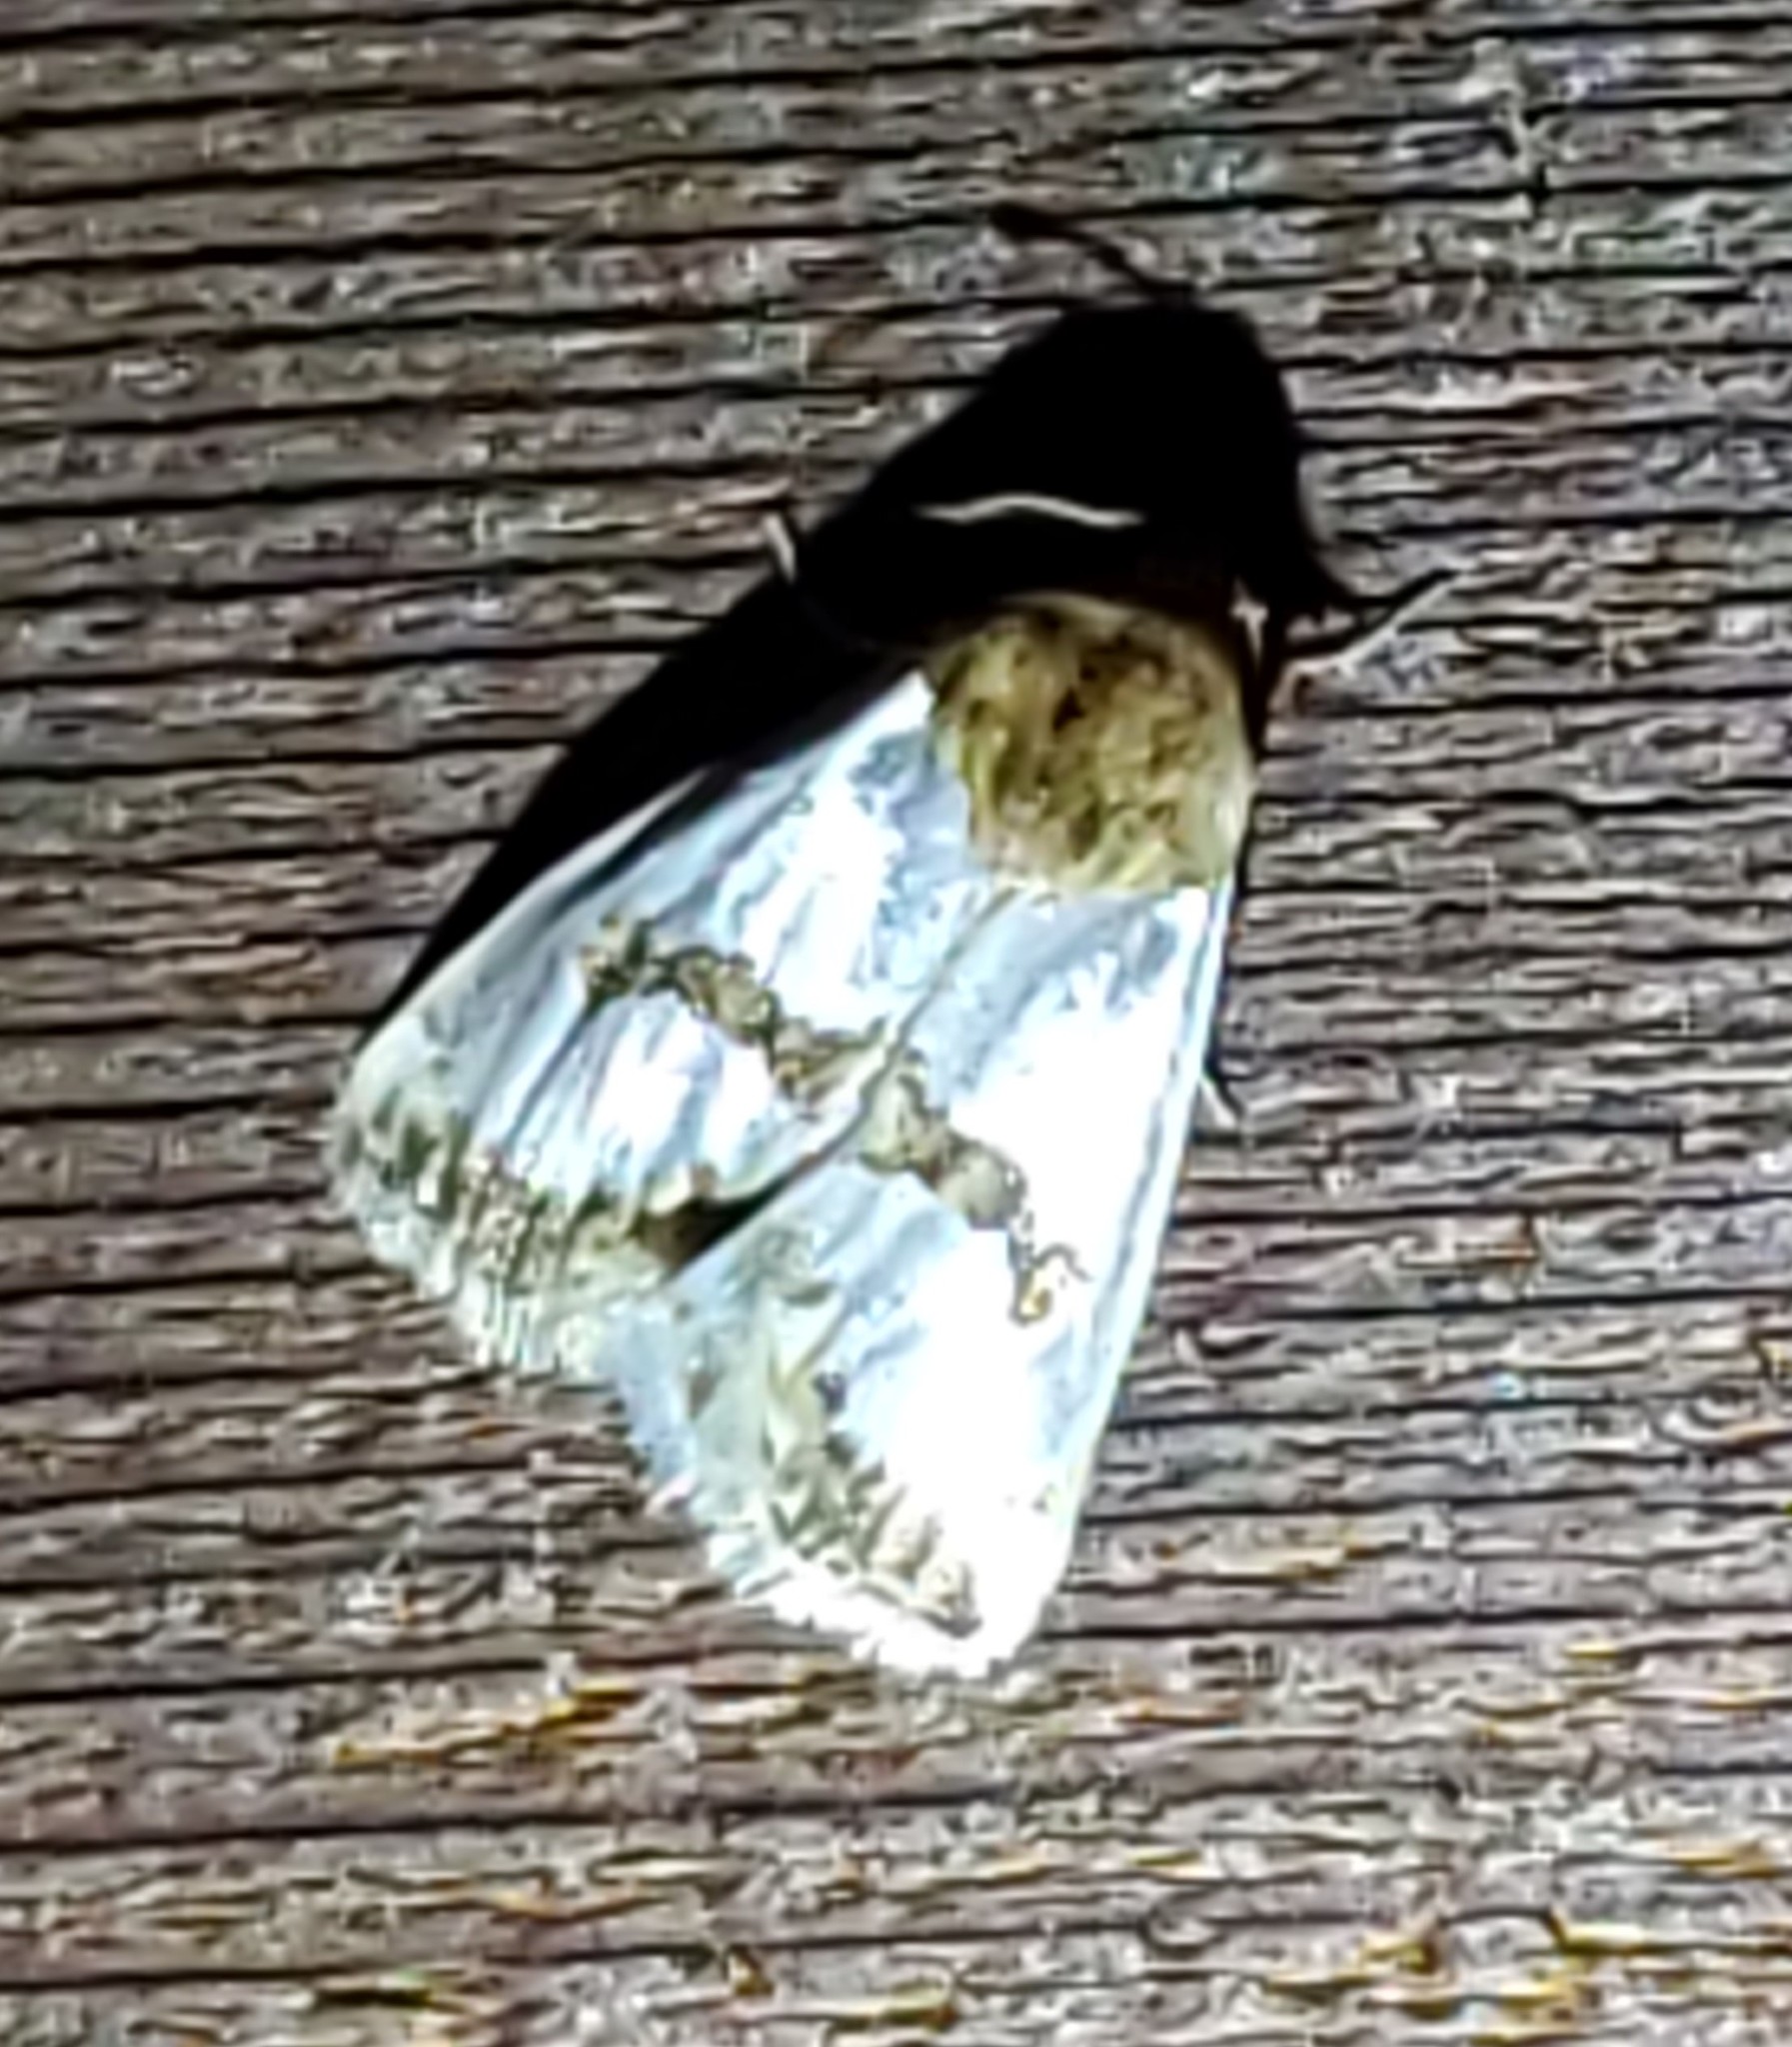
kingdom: Animalia
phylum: Arthropoda
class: Insecta
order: Lepidoptera
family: Noctuidae
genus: Schinia
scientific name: Schinia chrysellus
